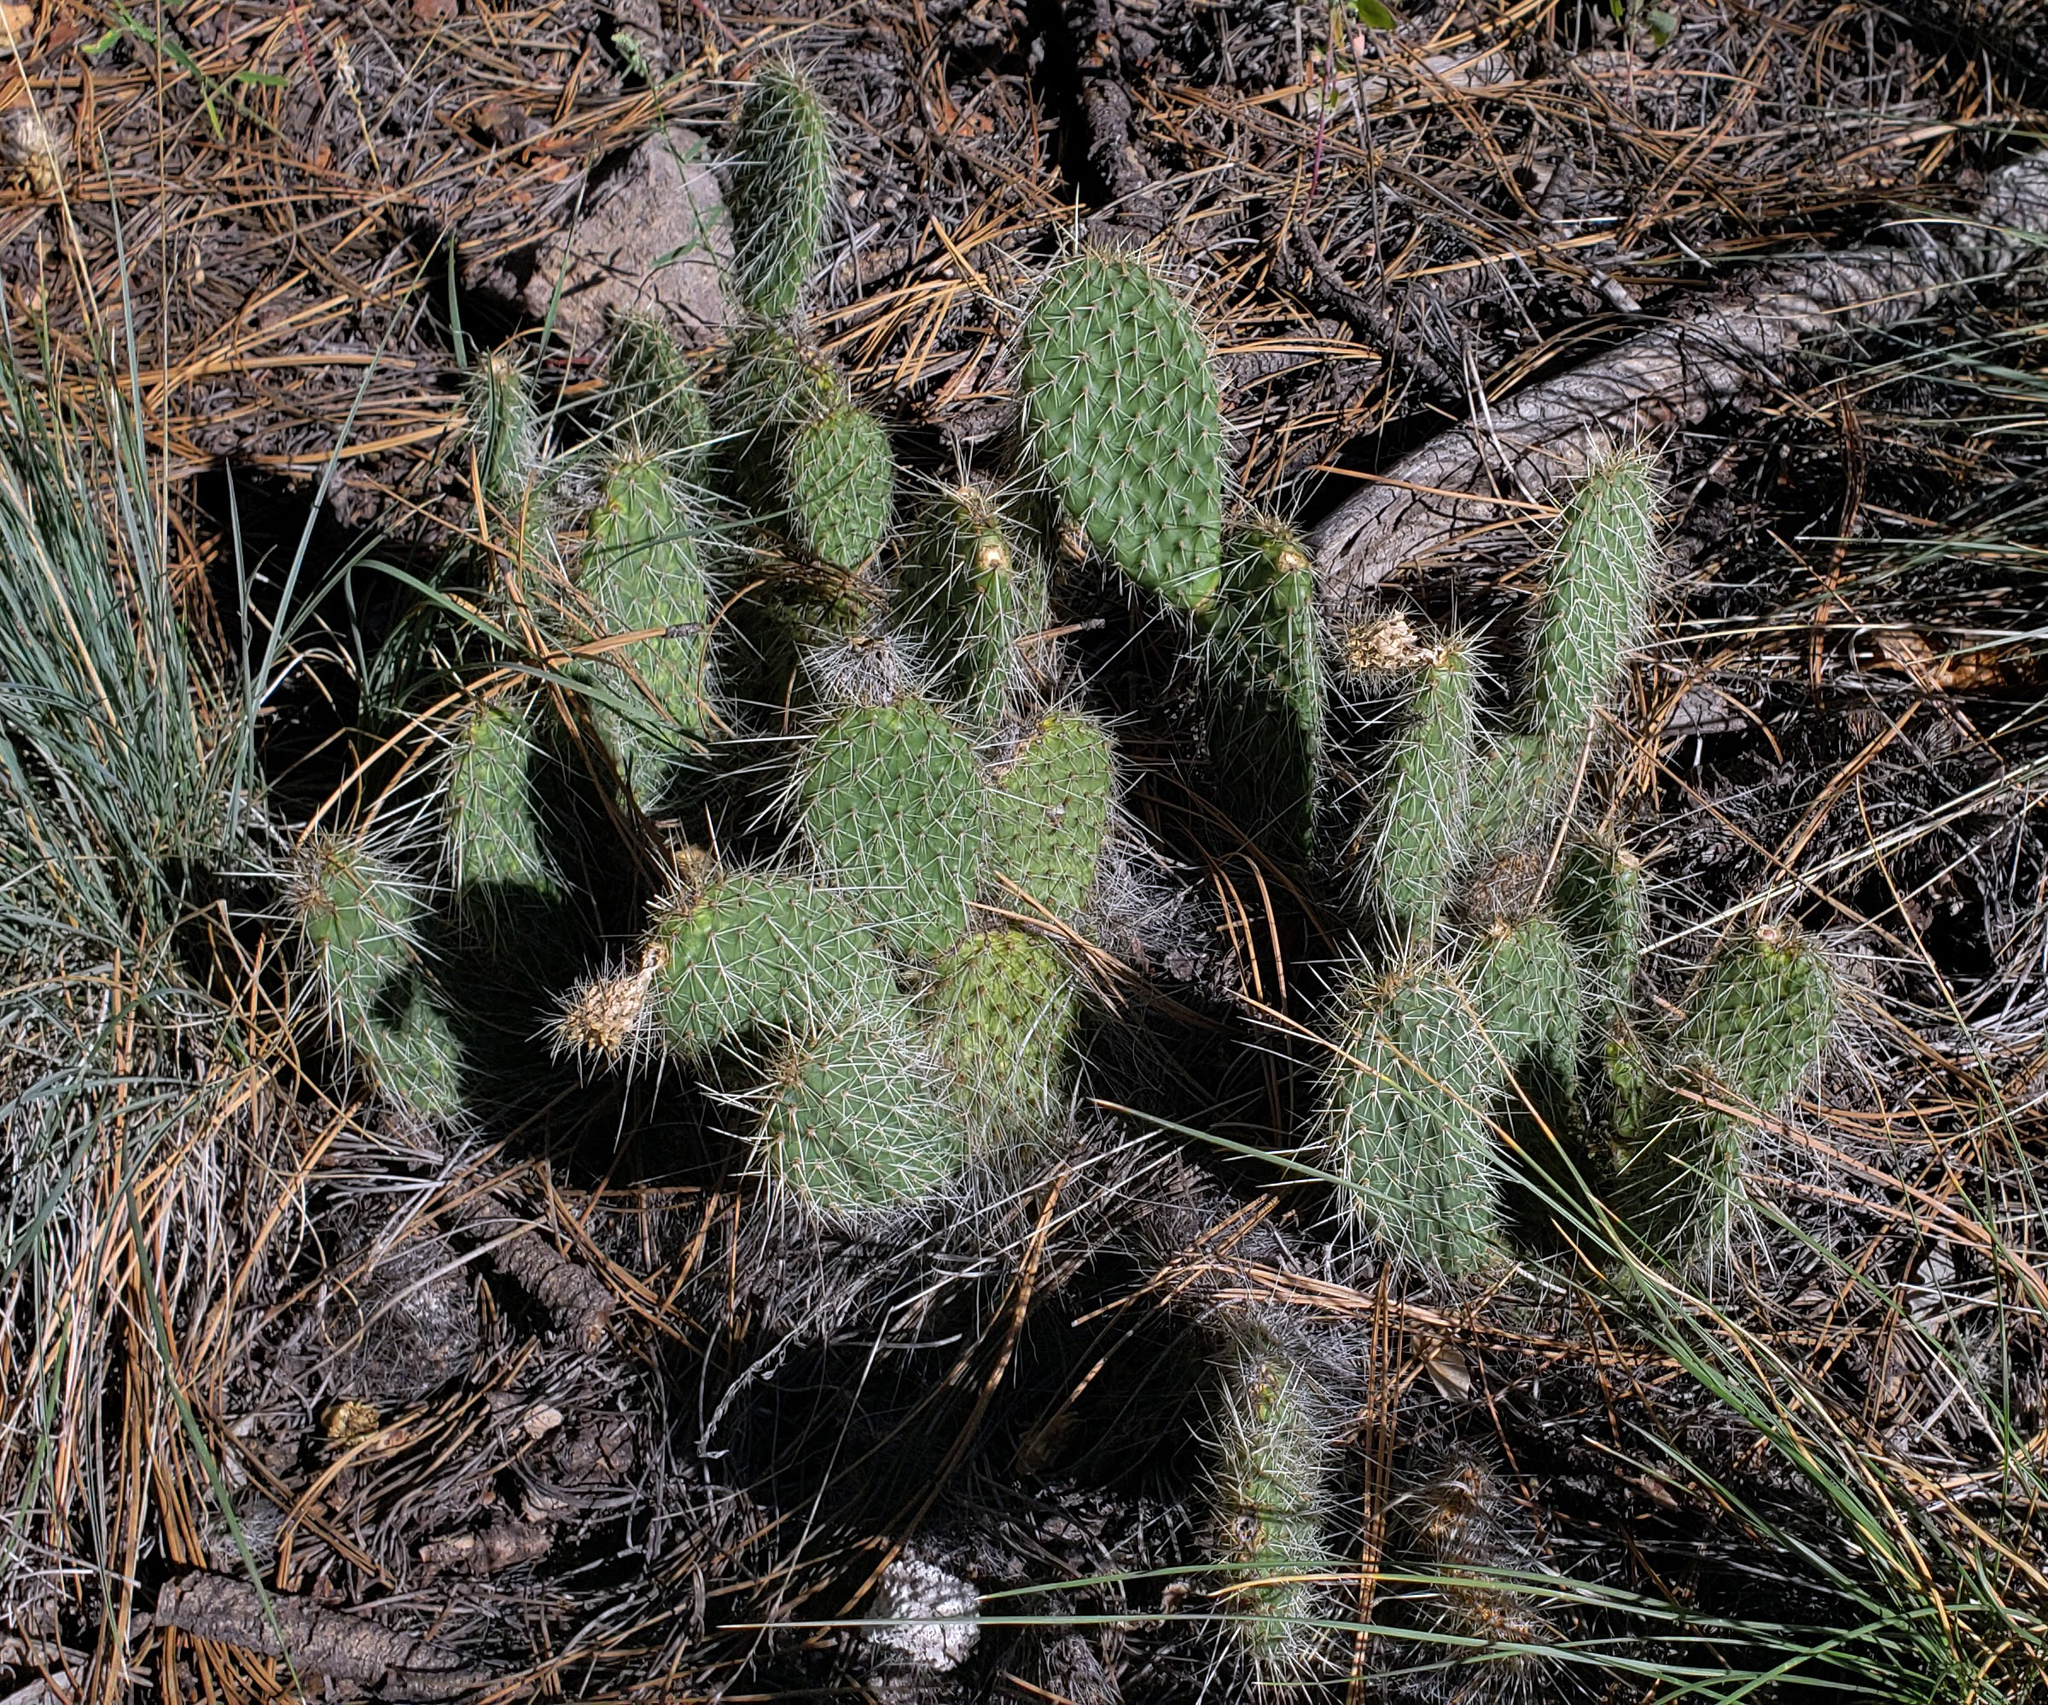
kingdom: Plantae
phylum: Tracheophyta
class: Magnoliopsida
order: Caryophyllales
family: Cactaceae
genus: Opuntia
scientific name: Opuntia polyacantha
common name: Plains prickly-pear
